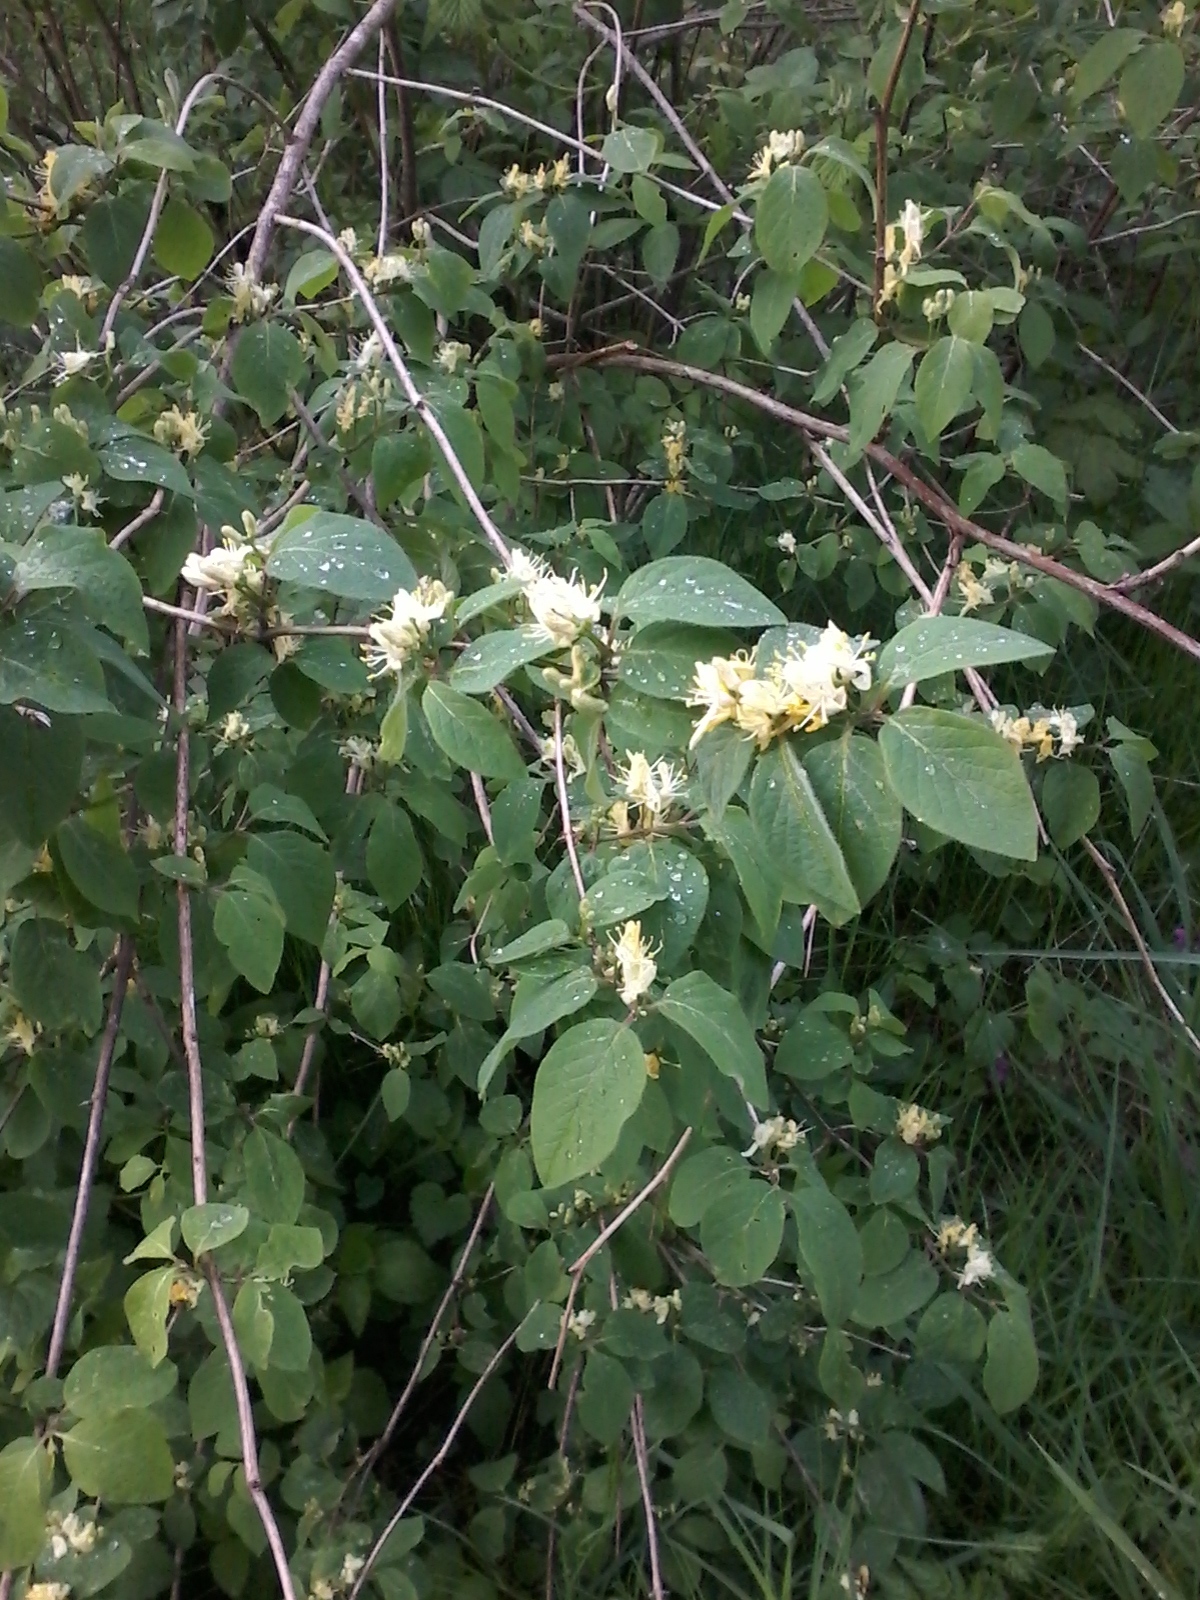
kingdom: Plantae
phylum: Tracheophyta
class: Magnoliopsida
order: Dipsacales
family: Caprifoliaceae
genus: Lonicera
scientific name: Lonicera xylosteum
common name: Fly honeysuckle
